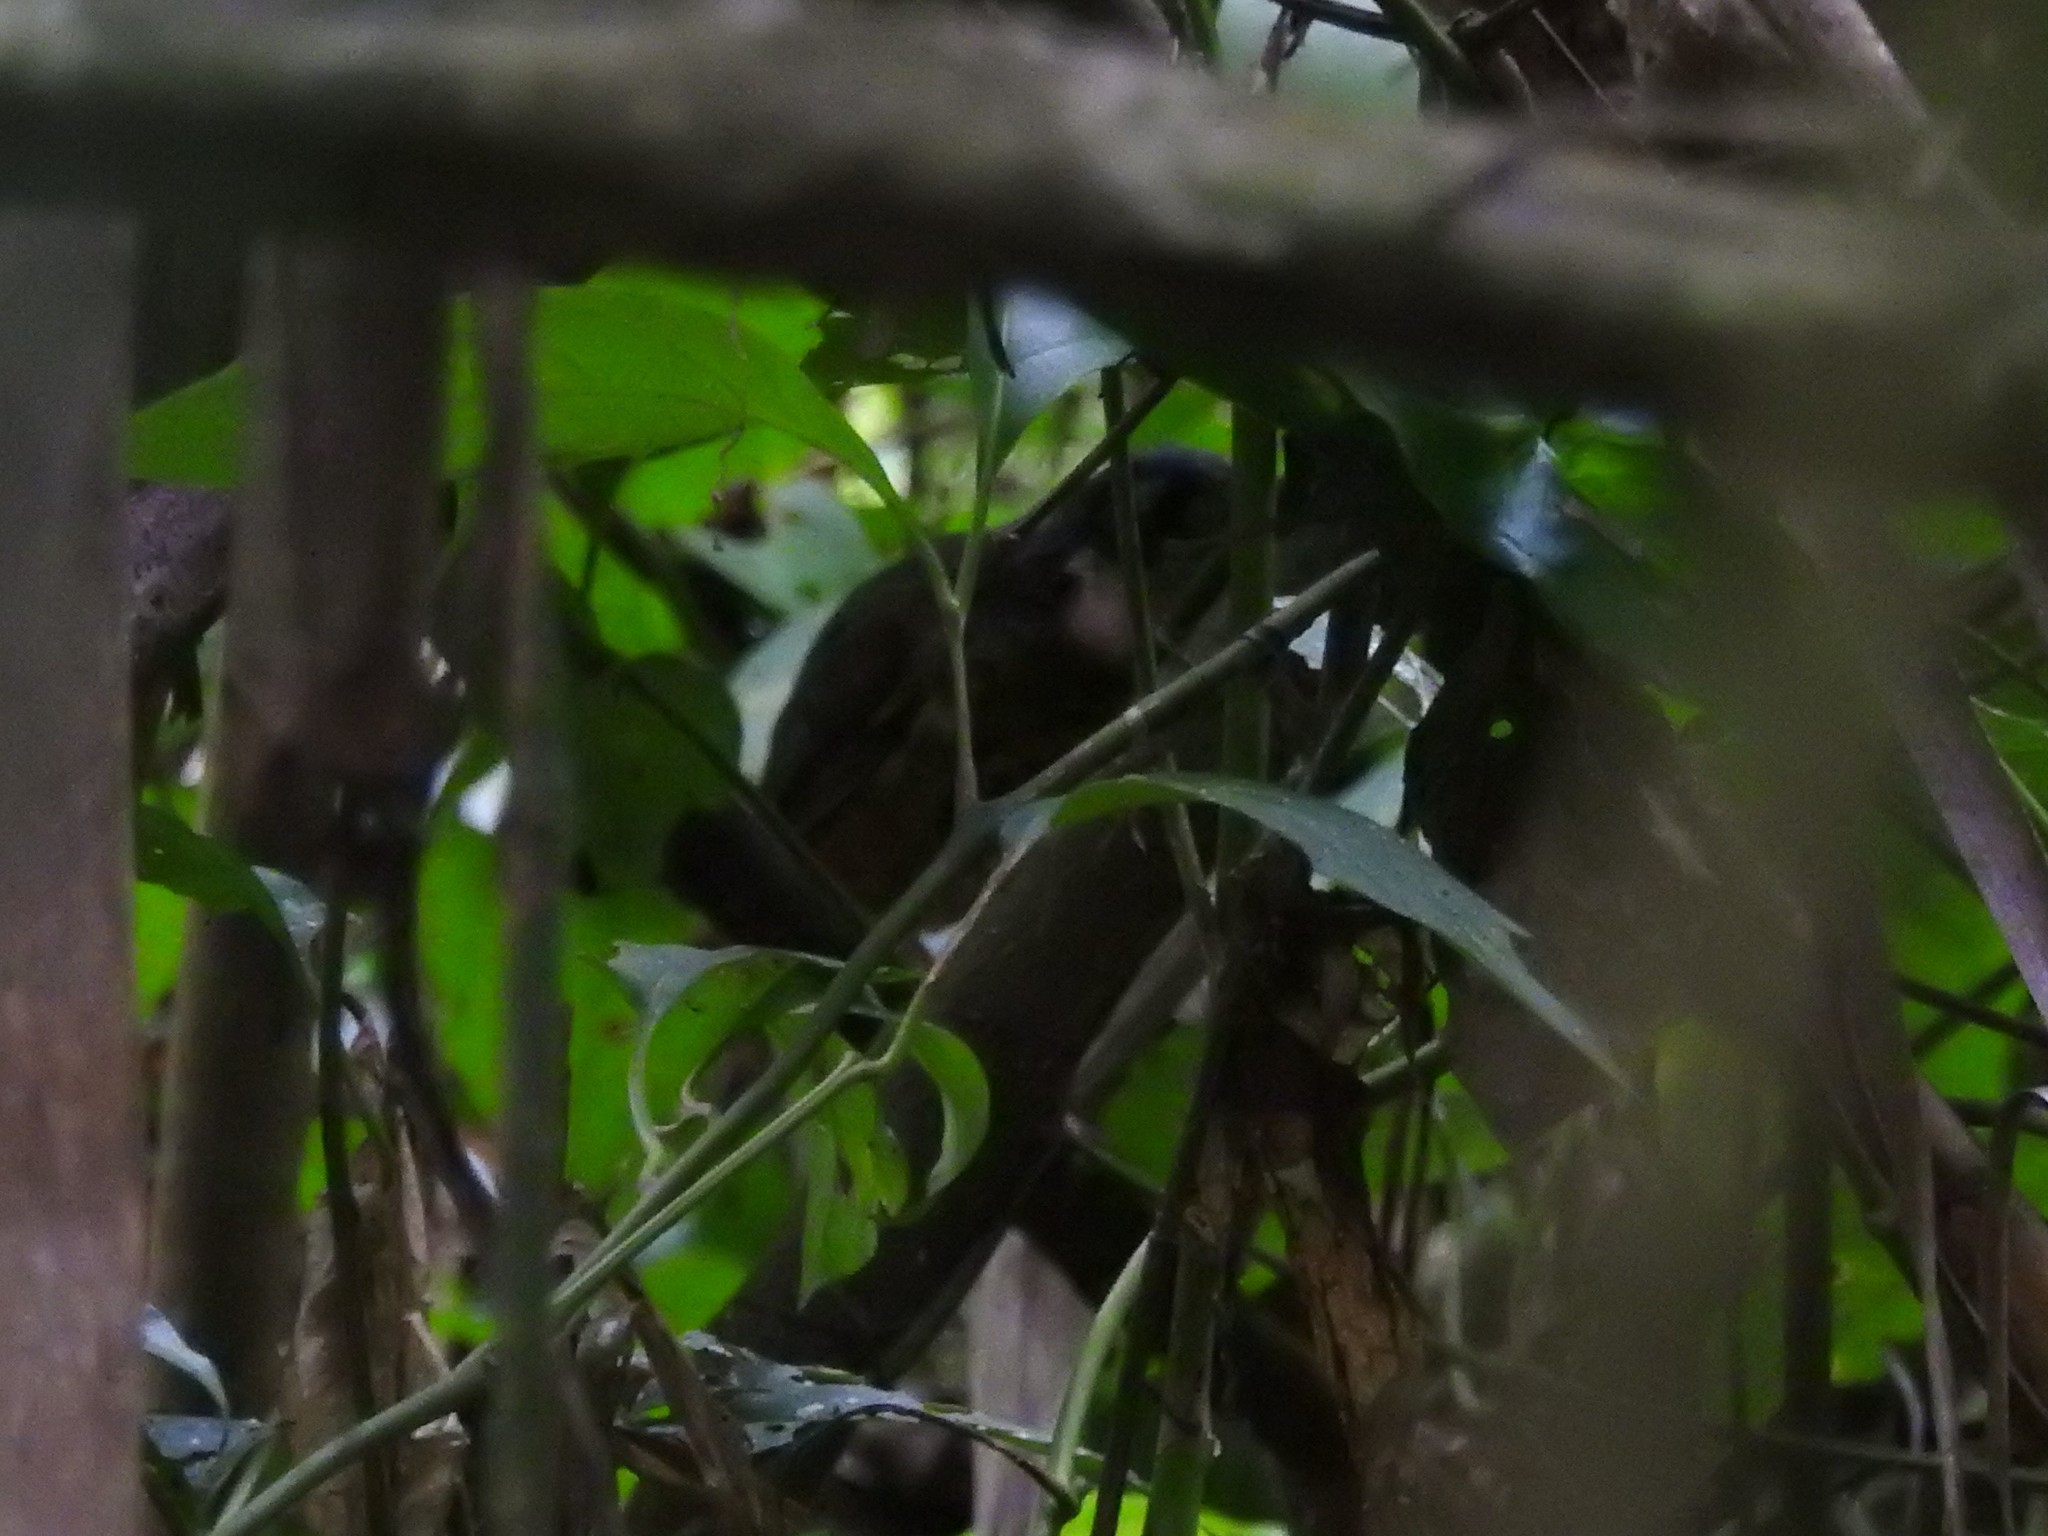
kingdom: Animalia
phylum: Chordata
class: Aves
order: Passeriformes
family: Grallariidae
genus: Hylopezus
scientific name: Hylopezus fulviventris
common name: White-lored antpitta
